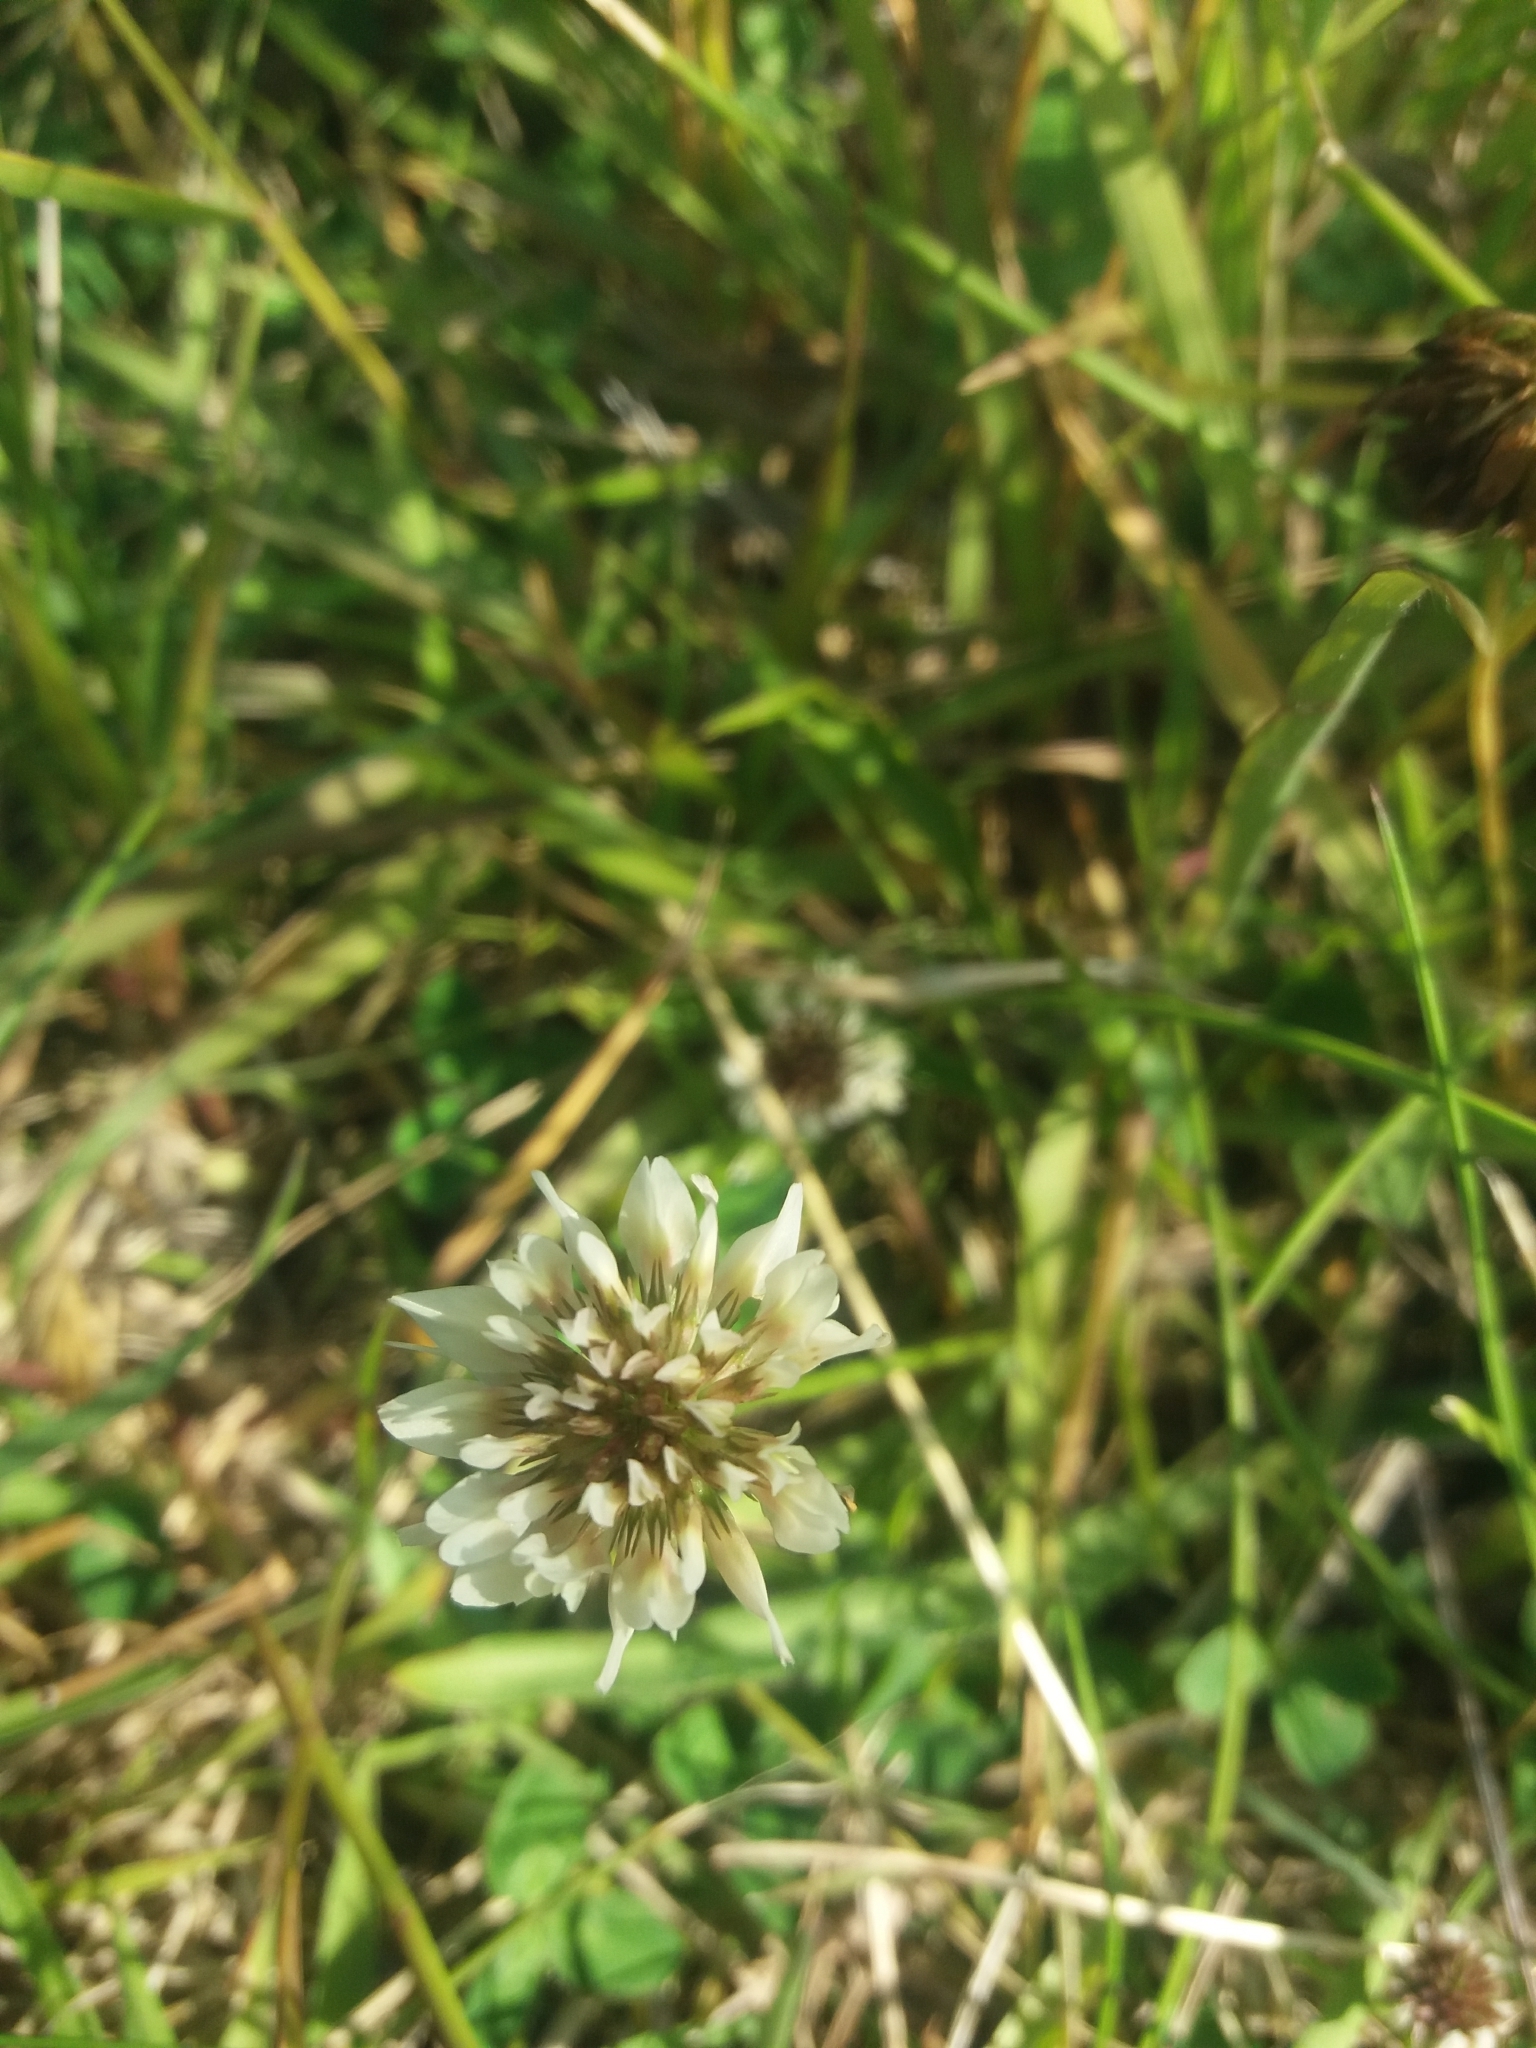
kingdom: Plantae
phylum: Tracheophyta
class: Magnoliopsida
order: Fabales
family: Fabaceae
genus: Trifolium
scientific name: Trifolium repens
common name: White clover
